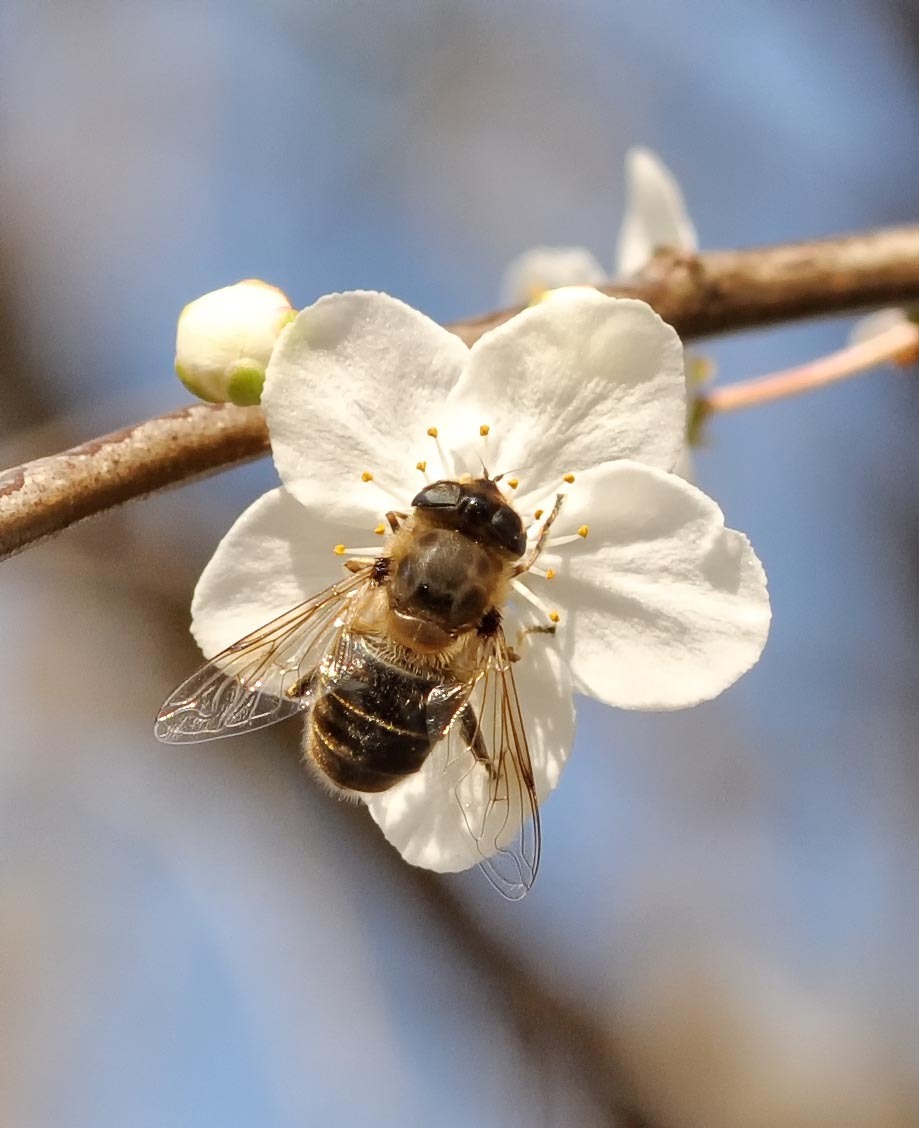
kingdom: Animalia
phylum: Arthropoda
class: Insecta
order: Diptera
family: Syrphidae
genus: Eristalis
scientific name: Eristalis tenax
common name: Drone fly
